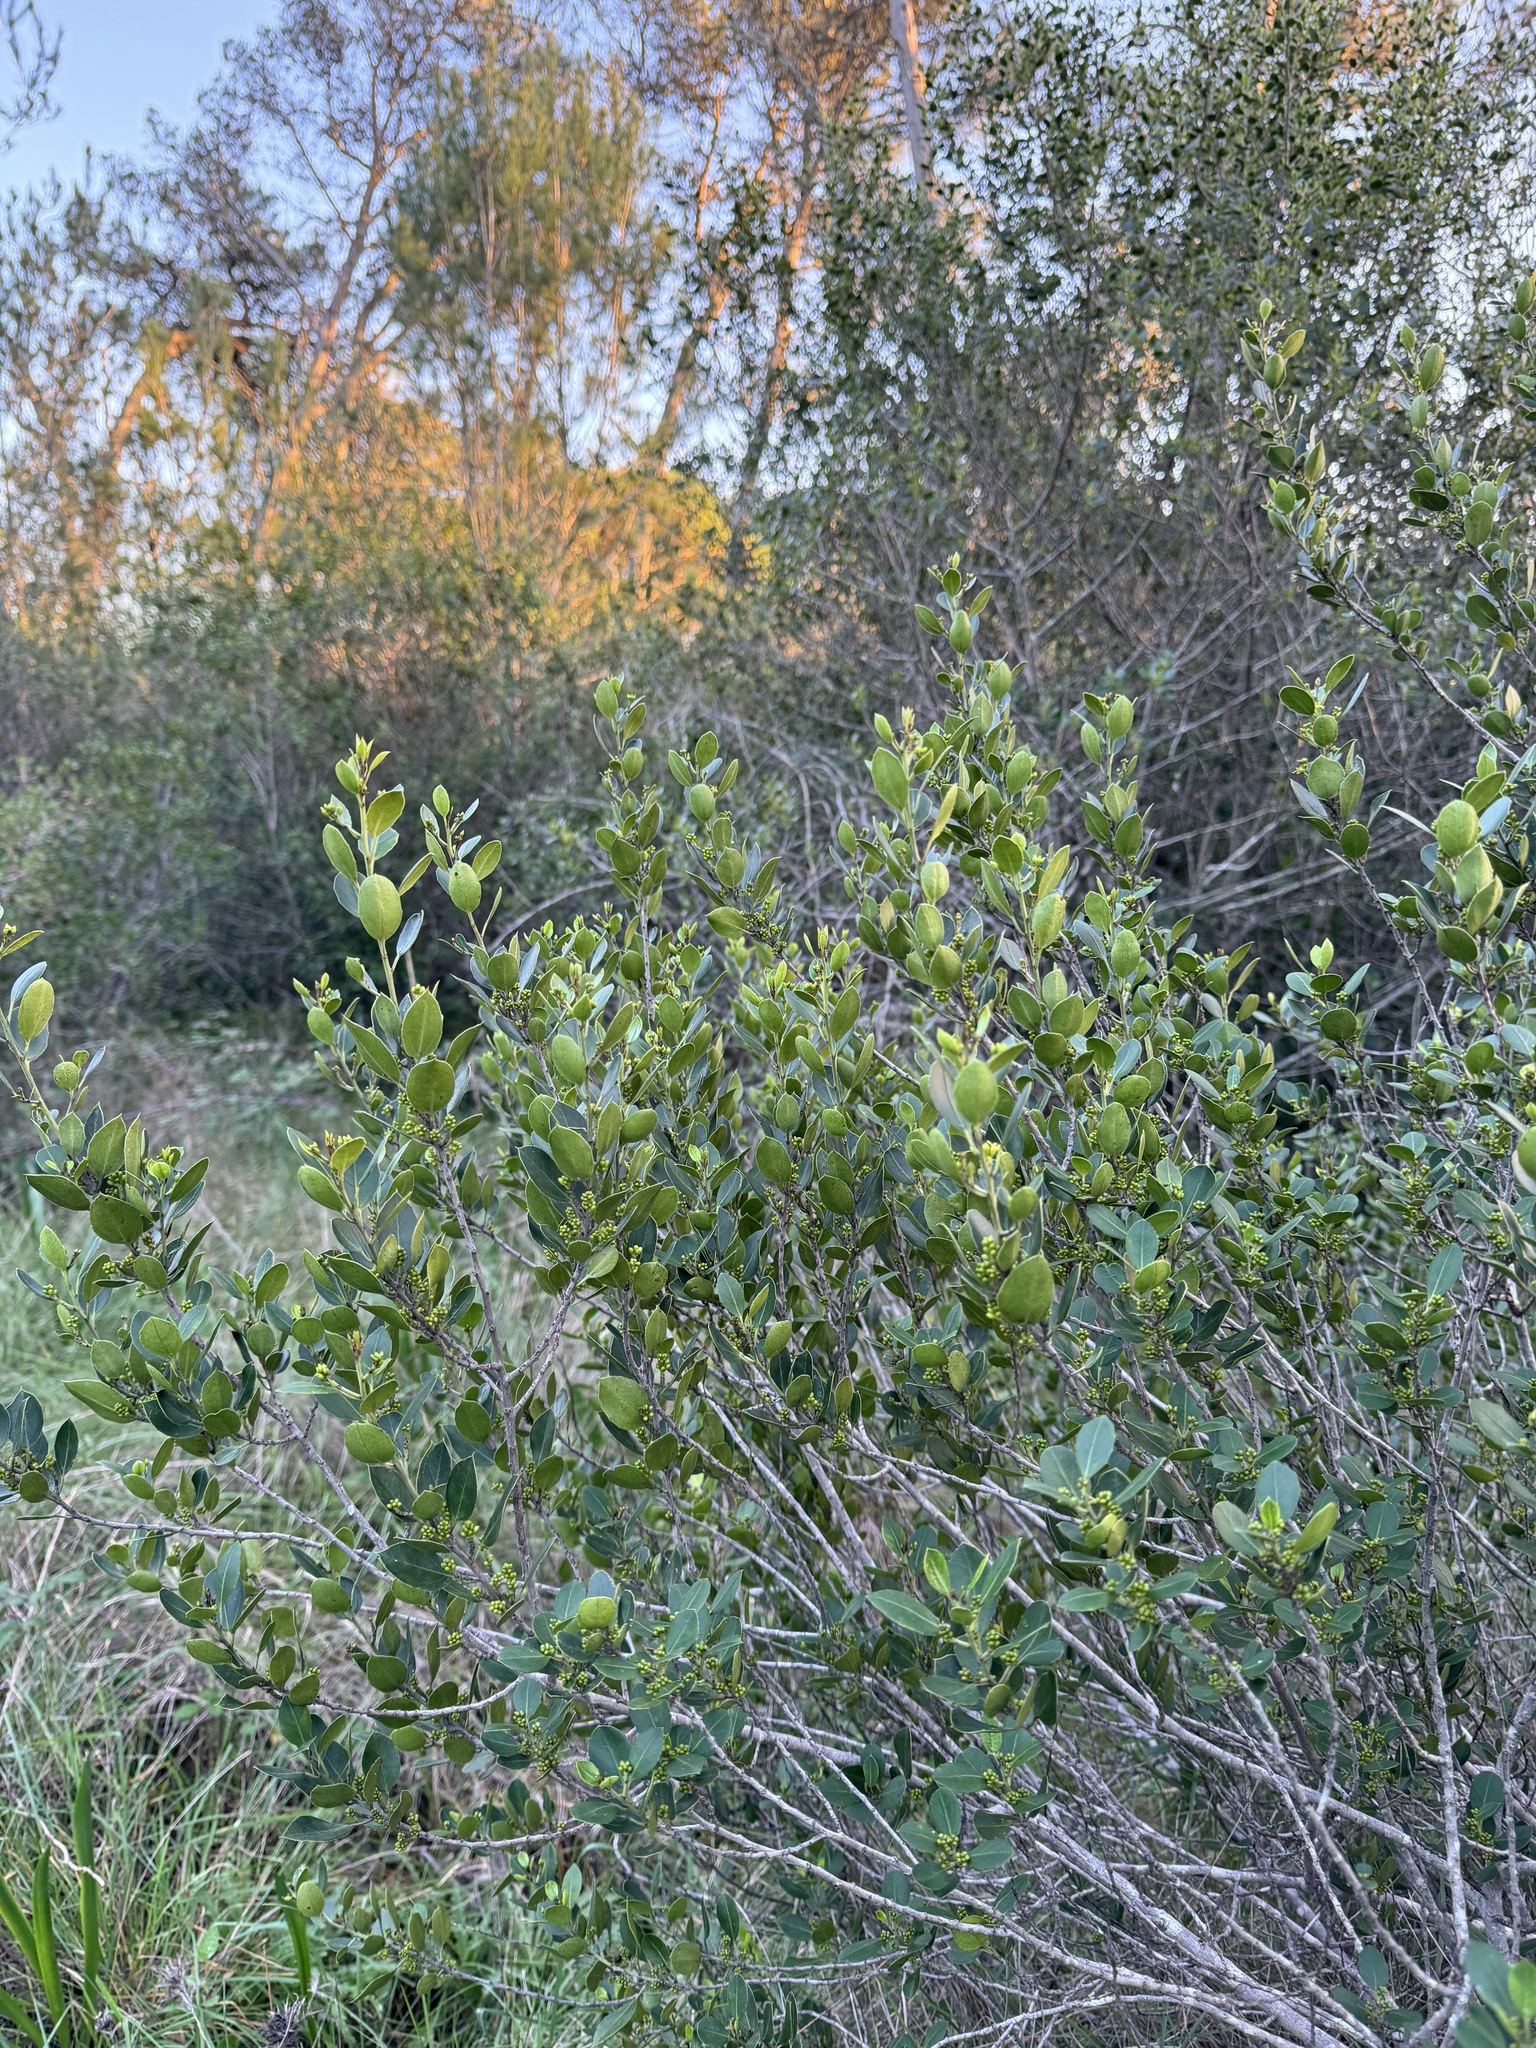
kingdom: Plantae
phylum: Tracheophyta
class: Magnoliopsida
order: Rosales
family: Rhamnaceae
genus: Rhamnus
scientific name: Rhamnus alaternus
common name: Mediterranean buckthorn
